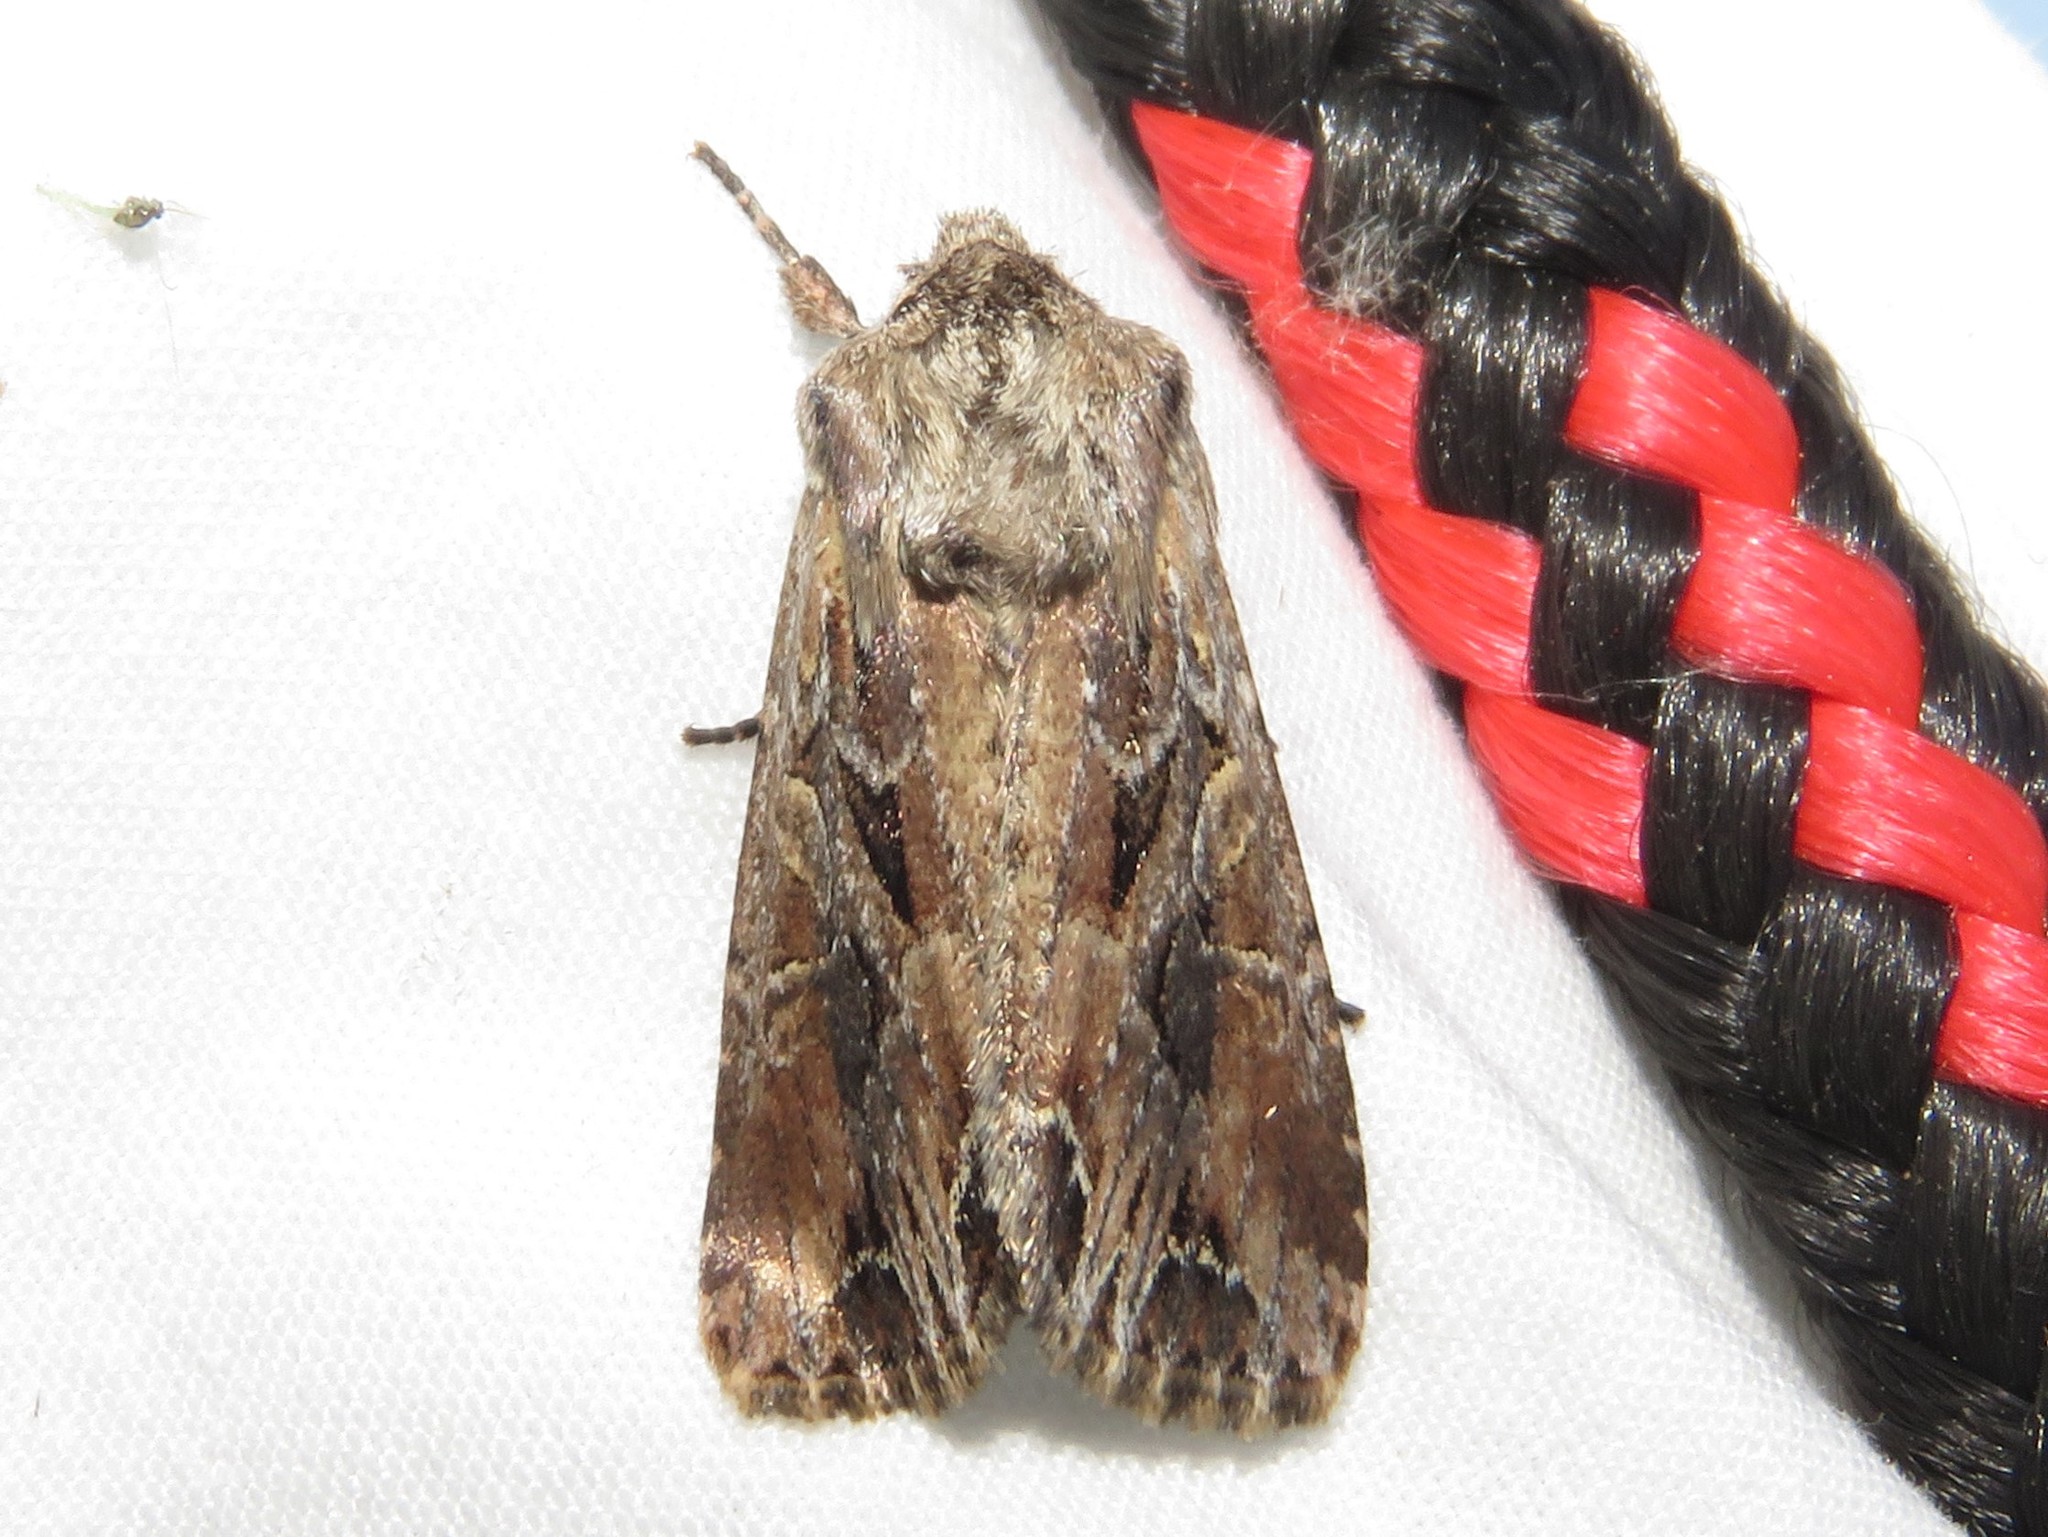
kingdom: Animalia
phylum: Arthropoda
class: Insecta
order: Lepidoptera
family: Noctuidae
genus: Lacanobia
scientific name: Lacanobia nevadae
